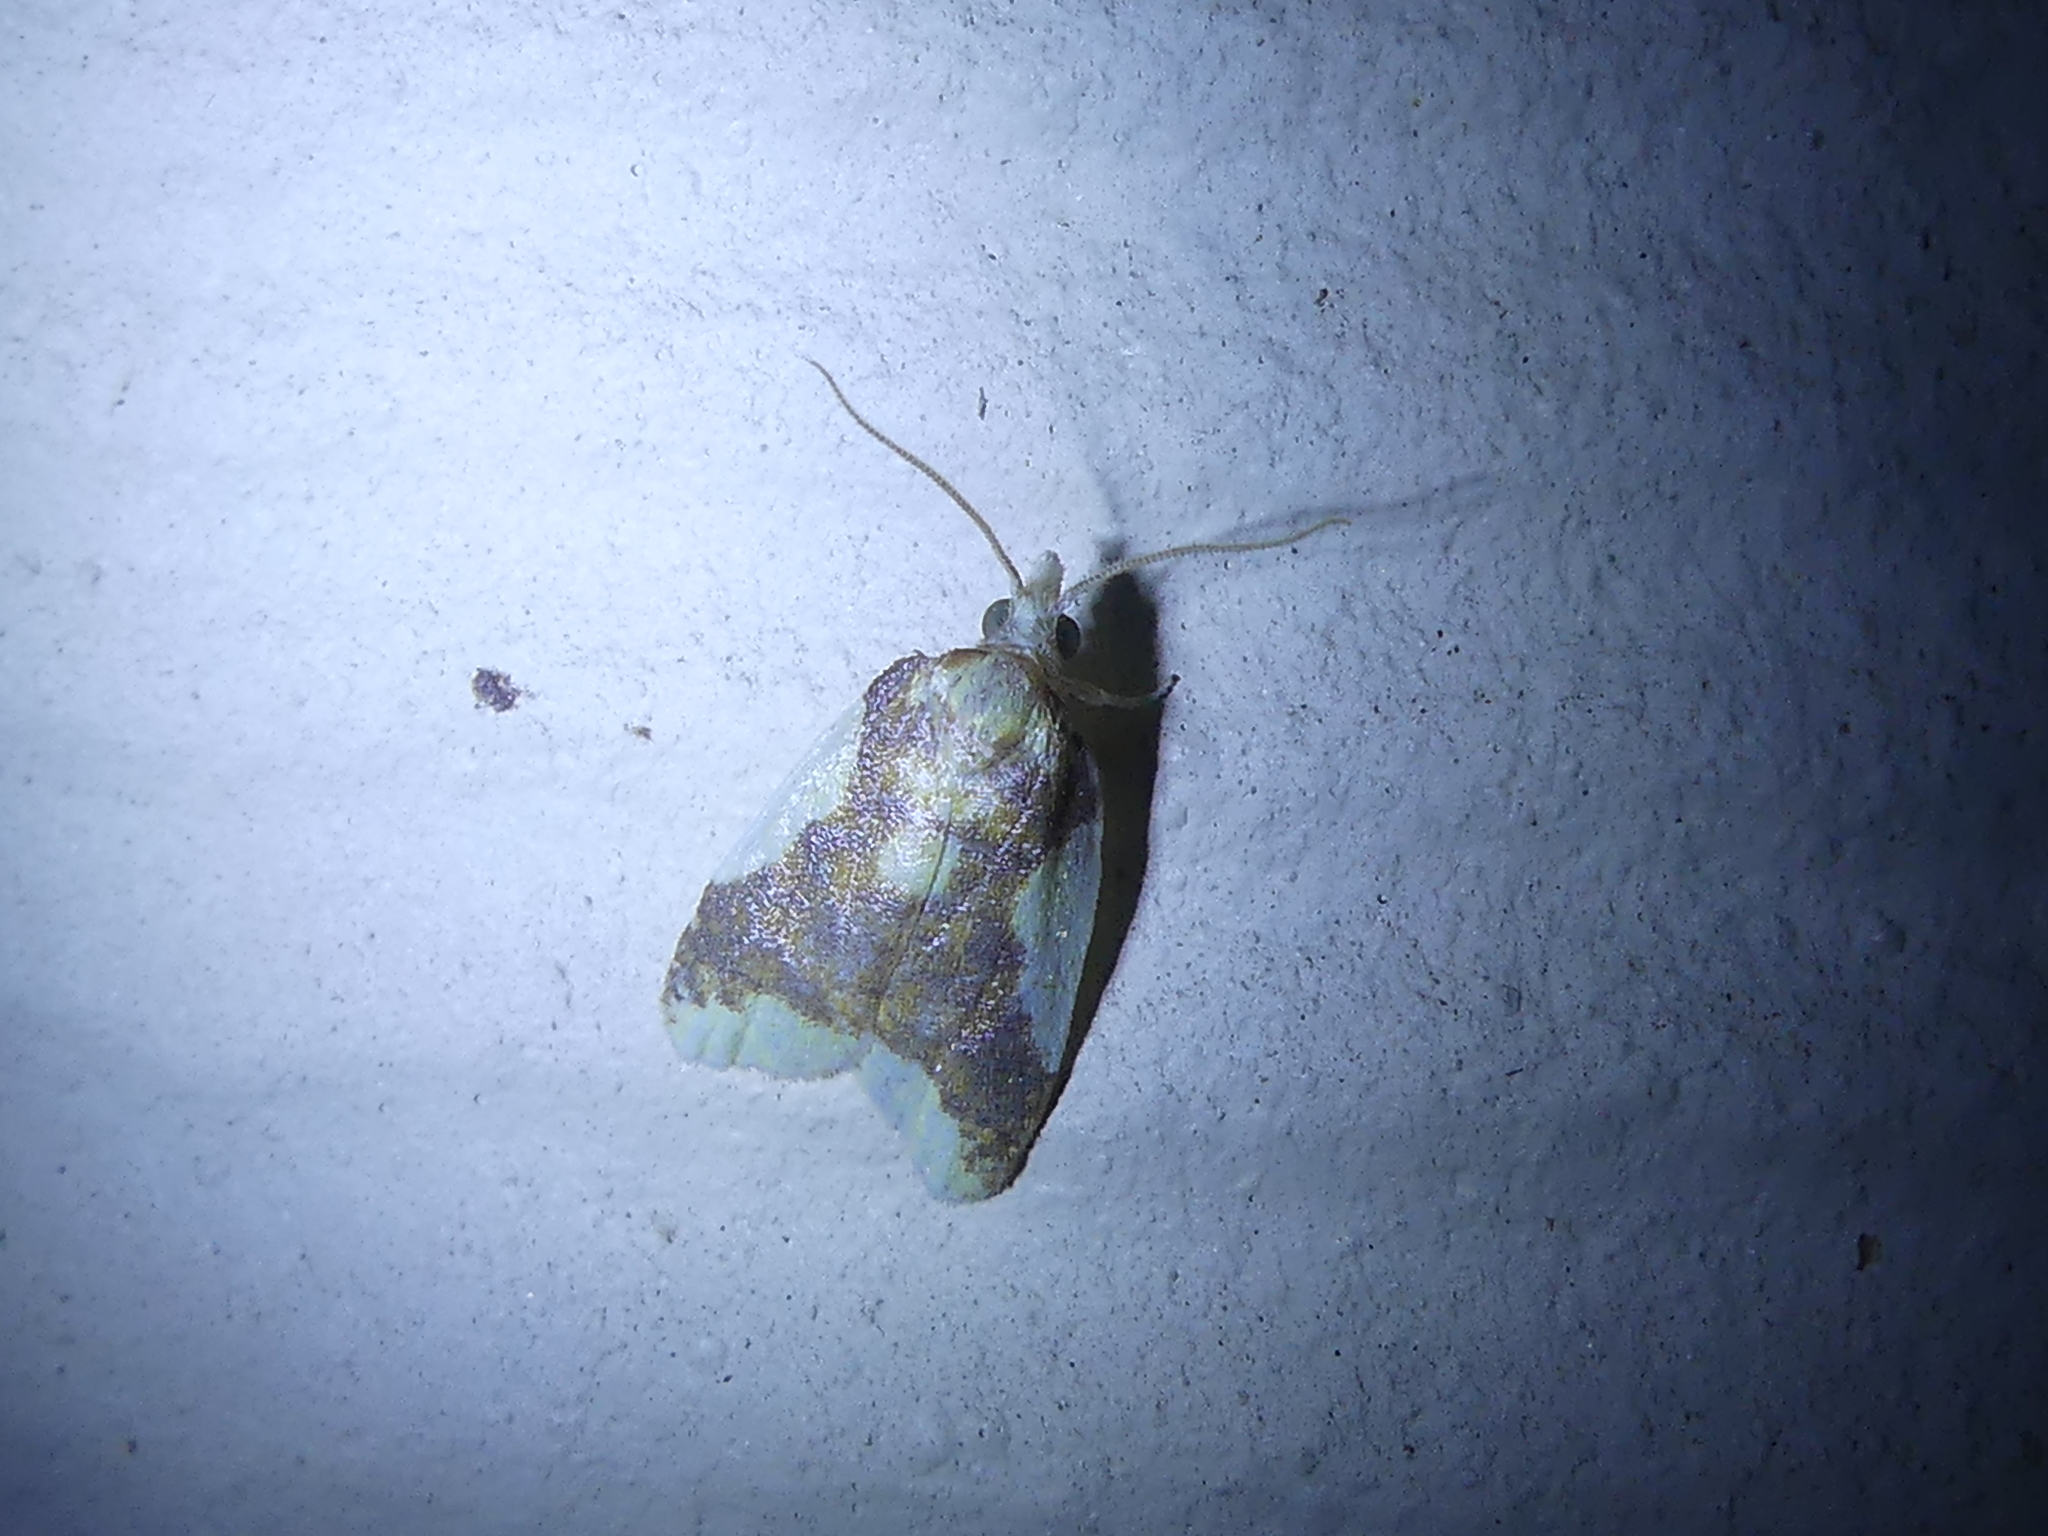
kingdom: Animalia
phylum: Arthropoda
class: Insecta
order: Lepidoptera
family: Tortricidae
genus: Sparganothis
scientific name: Sparganothis pulcherrimana
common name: Beautiful sparganothis
